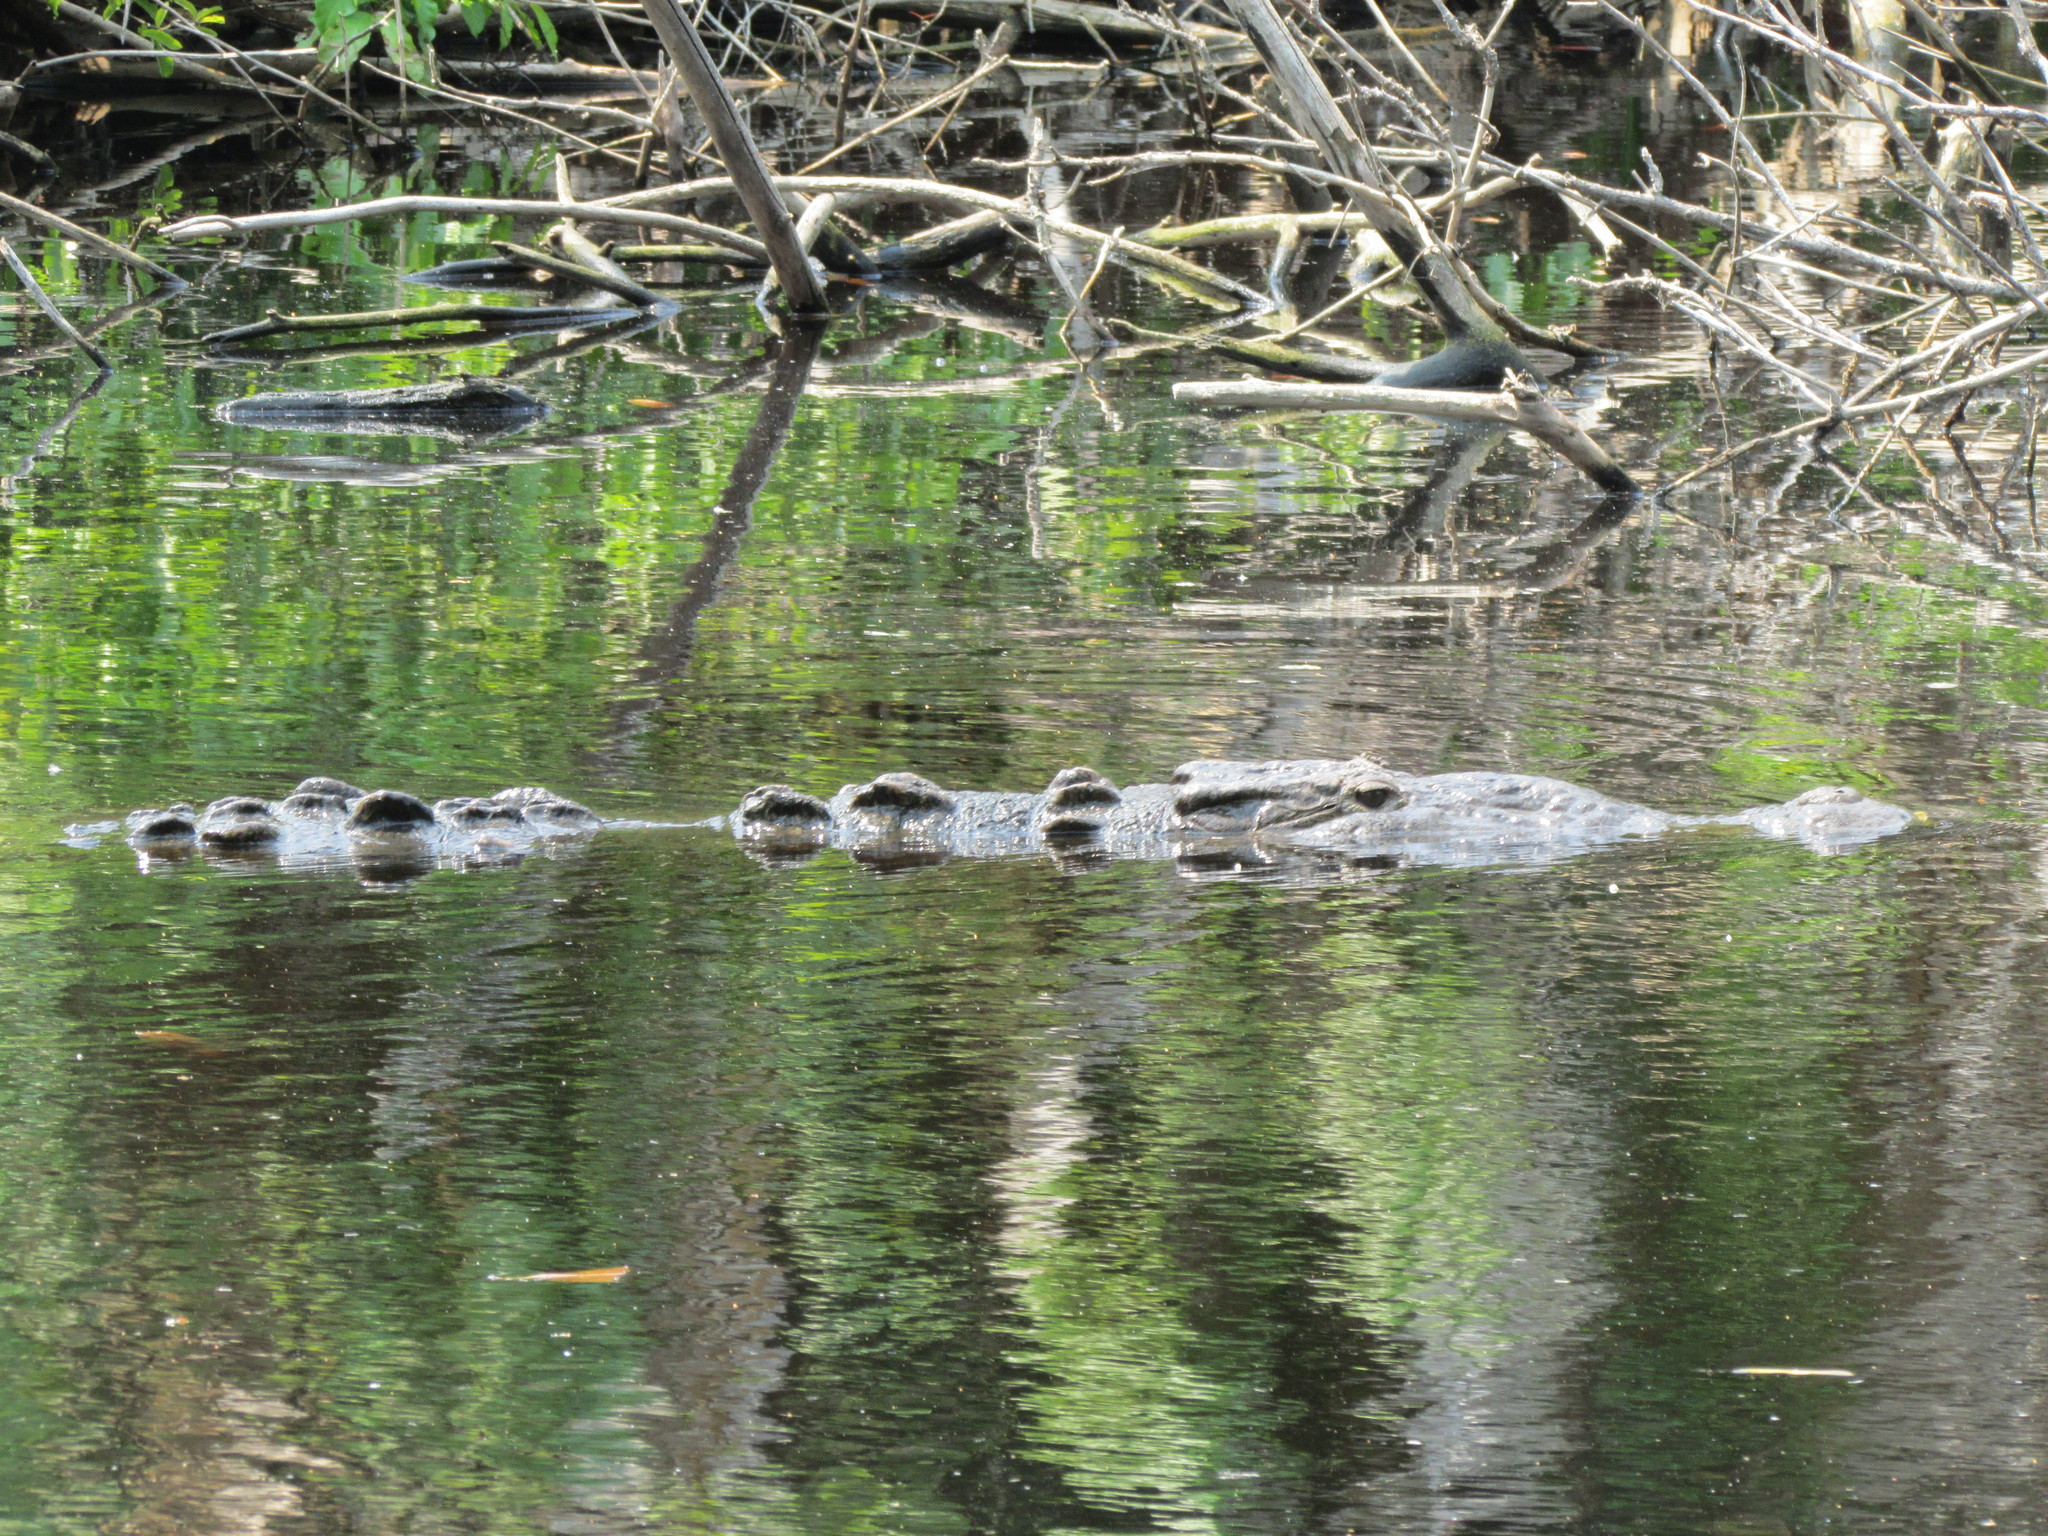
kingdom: Animalia
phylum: Chordata
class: Crocodylia
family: Crocodylidae
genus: Crocodylus
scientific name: Crocodylus acutus
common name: American crocodile
